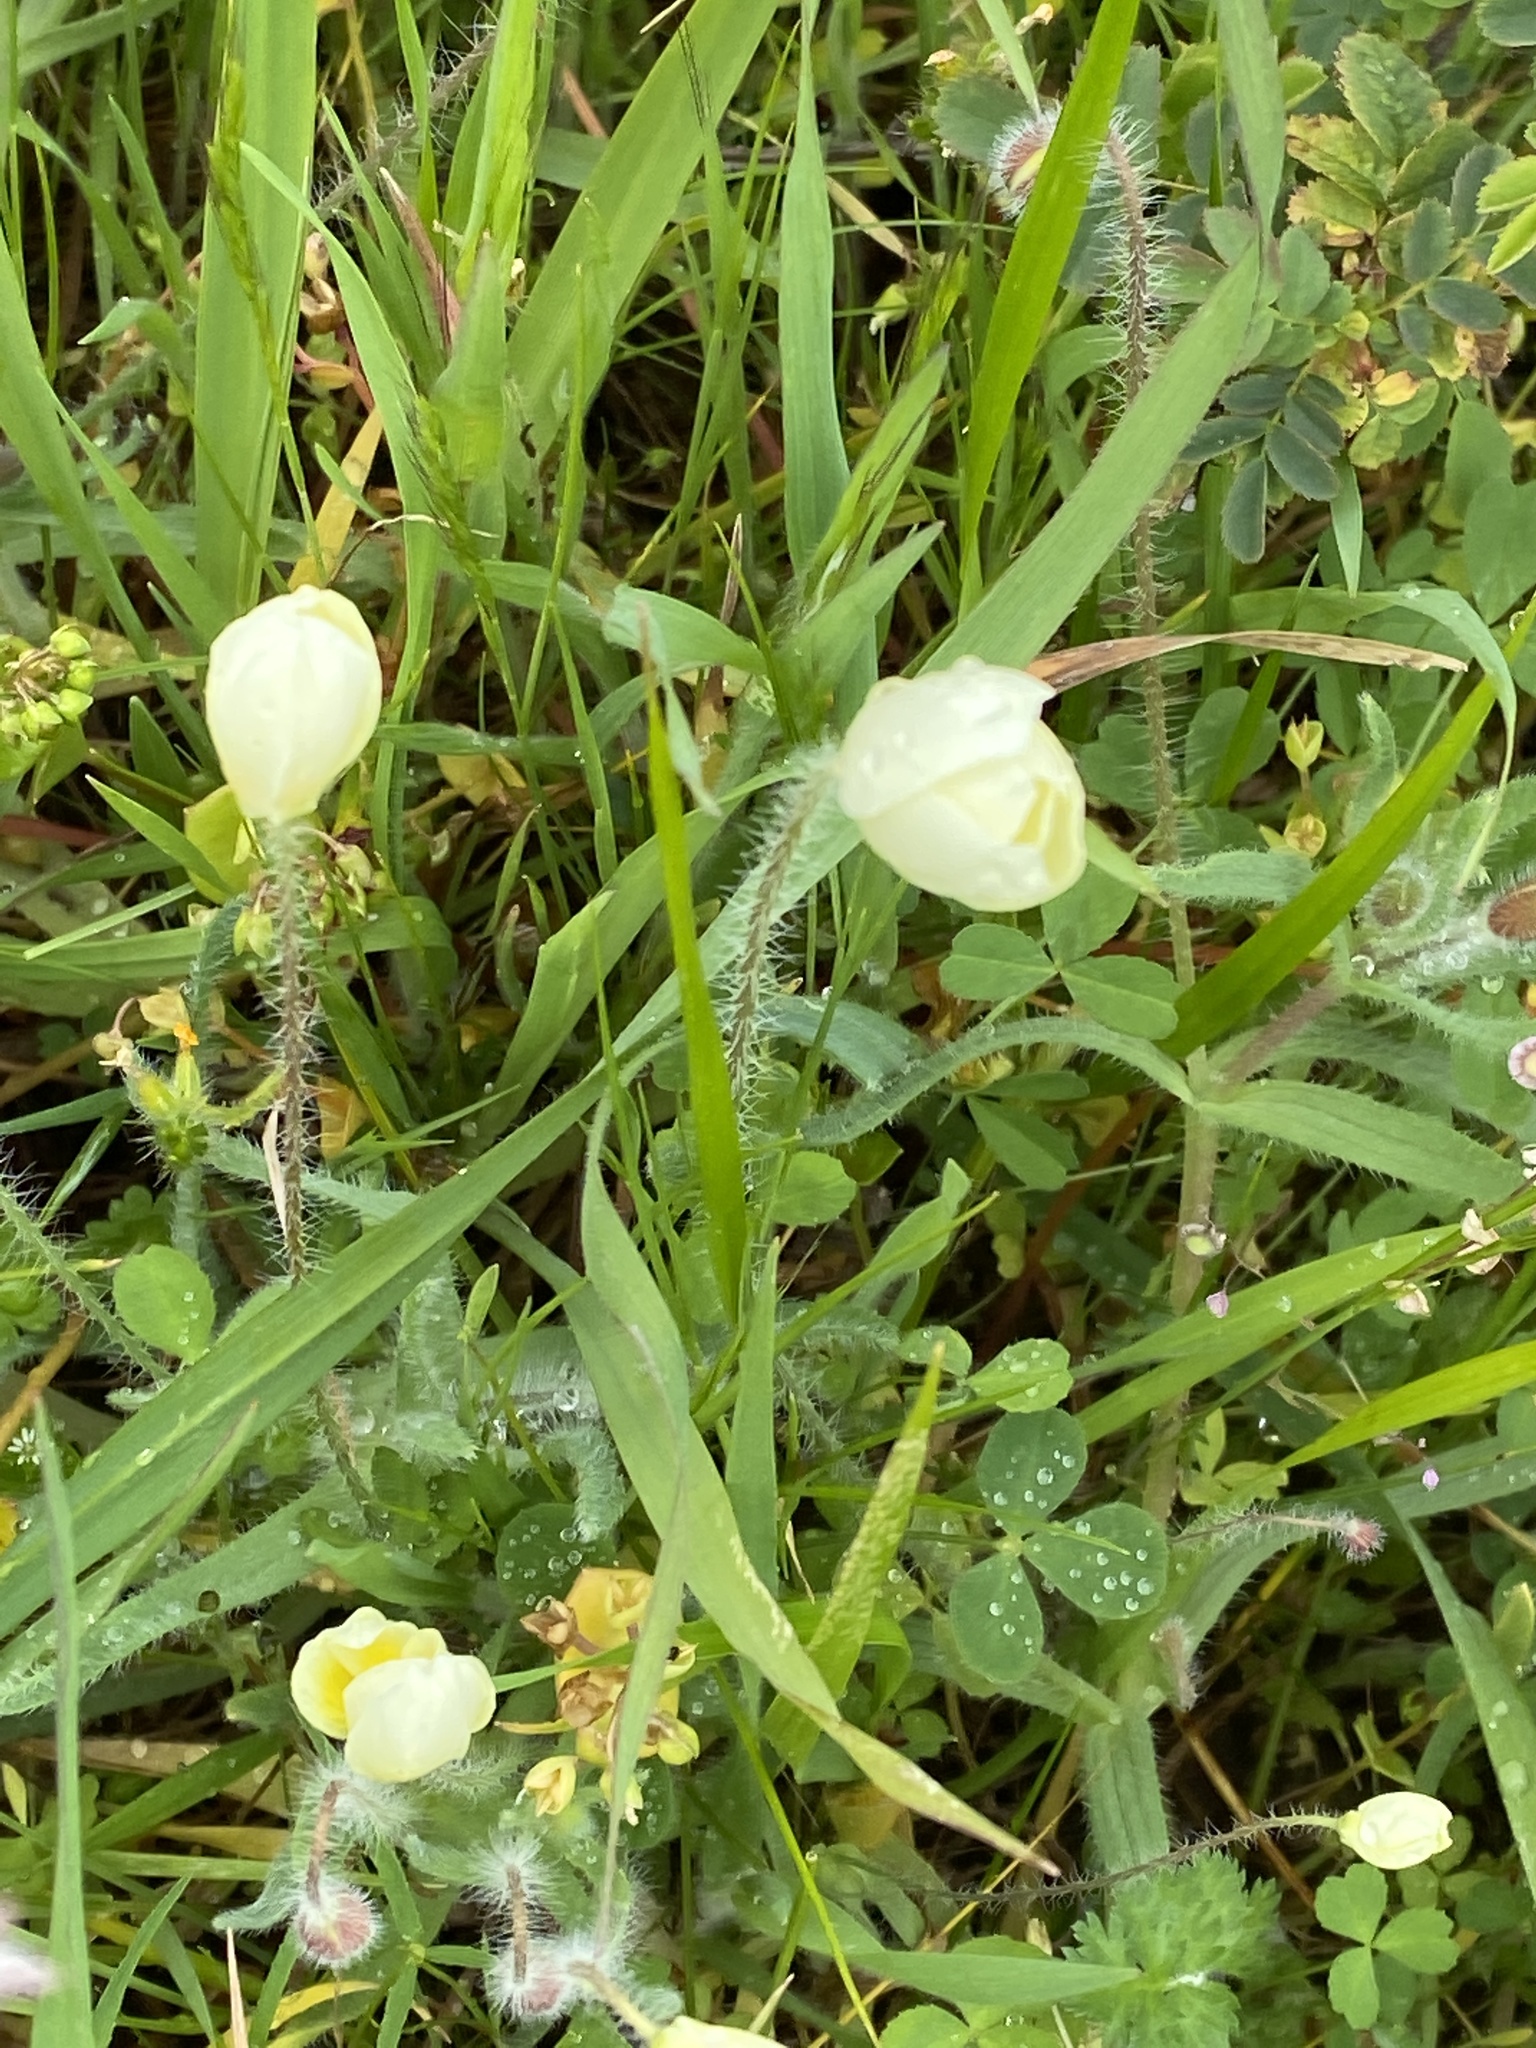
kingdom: Plantae
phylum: Tracheophyta
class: Magnoliopsida
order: Ranunculales
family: Papaveraceae
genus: Platystemon
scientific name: Platystemon californicus
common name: Cream-cups
